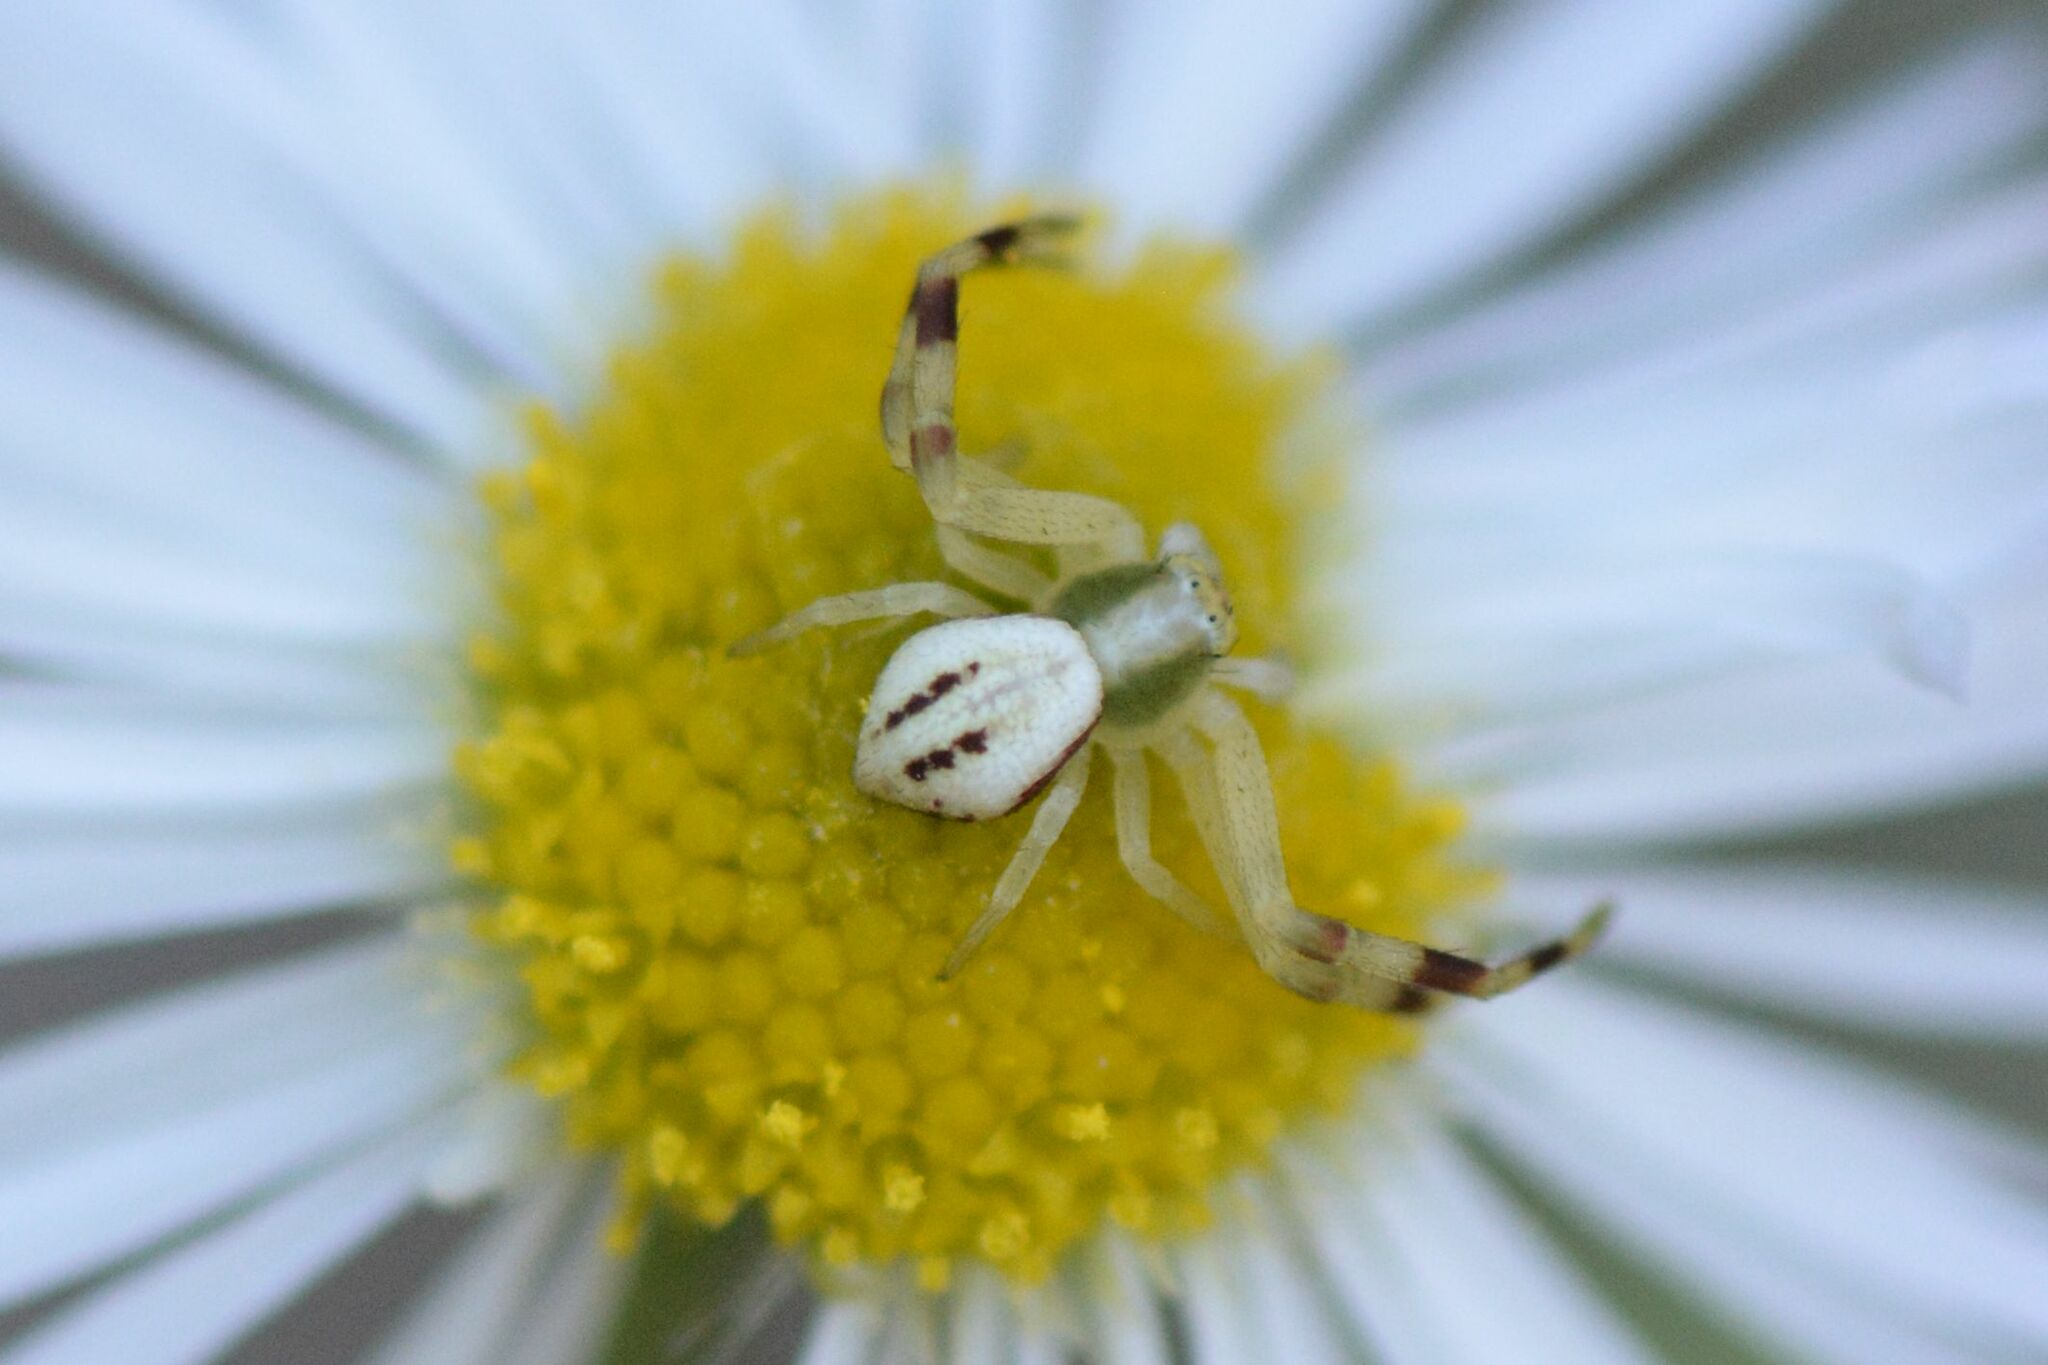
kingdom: Animalia
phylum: Arthropoda
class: Arachnida
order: Araneae
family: Thomisidae
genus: Misumena
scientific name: Misumena vatia
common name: Goldenrod crab spider
